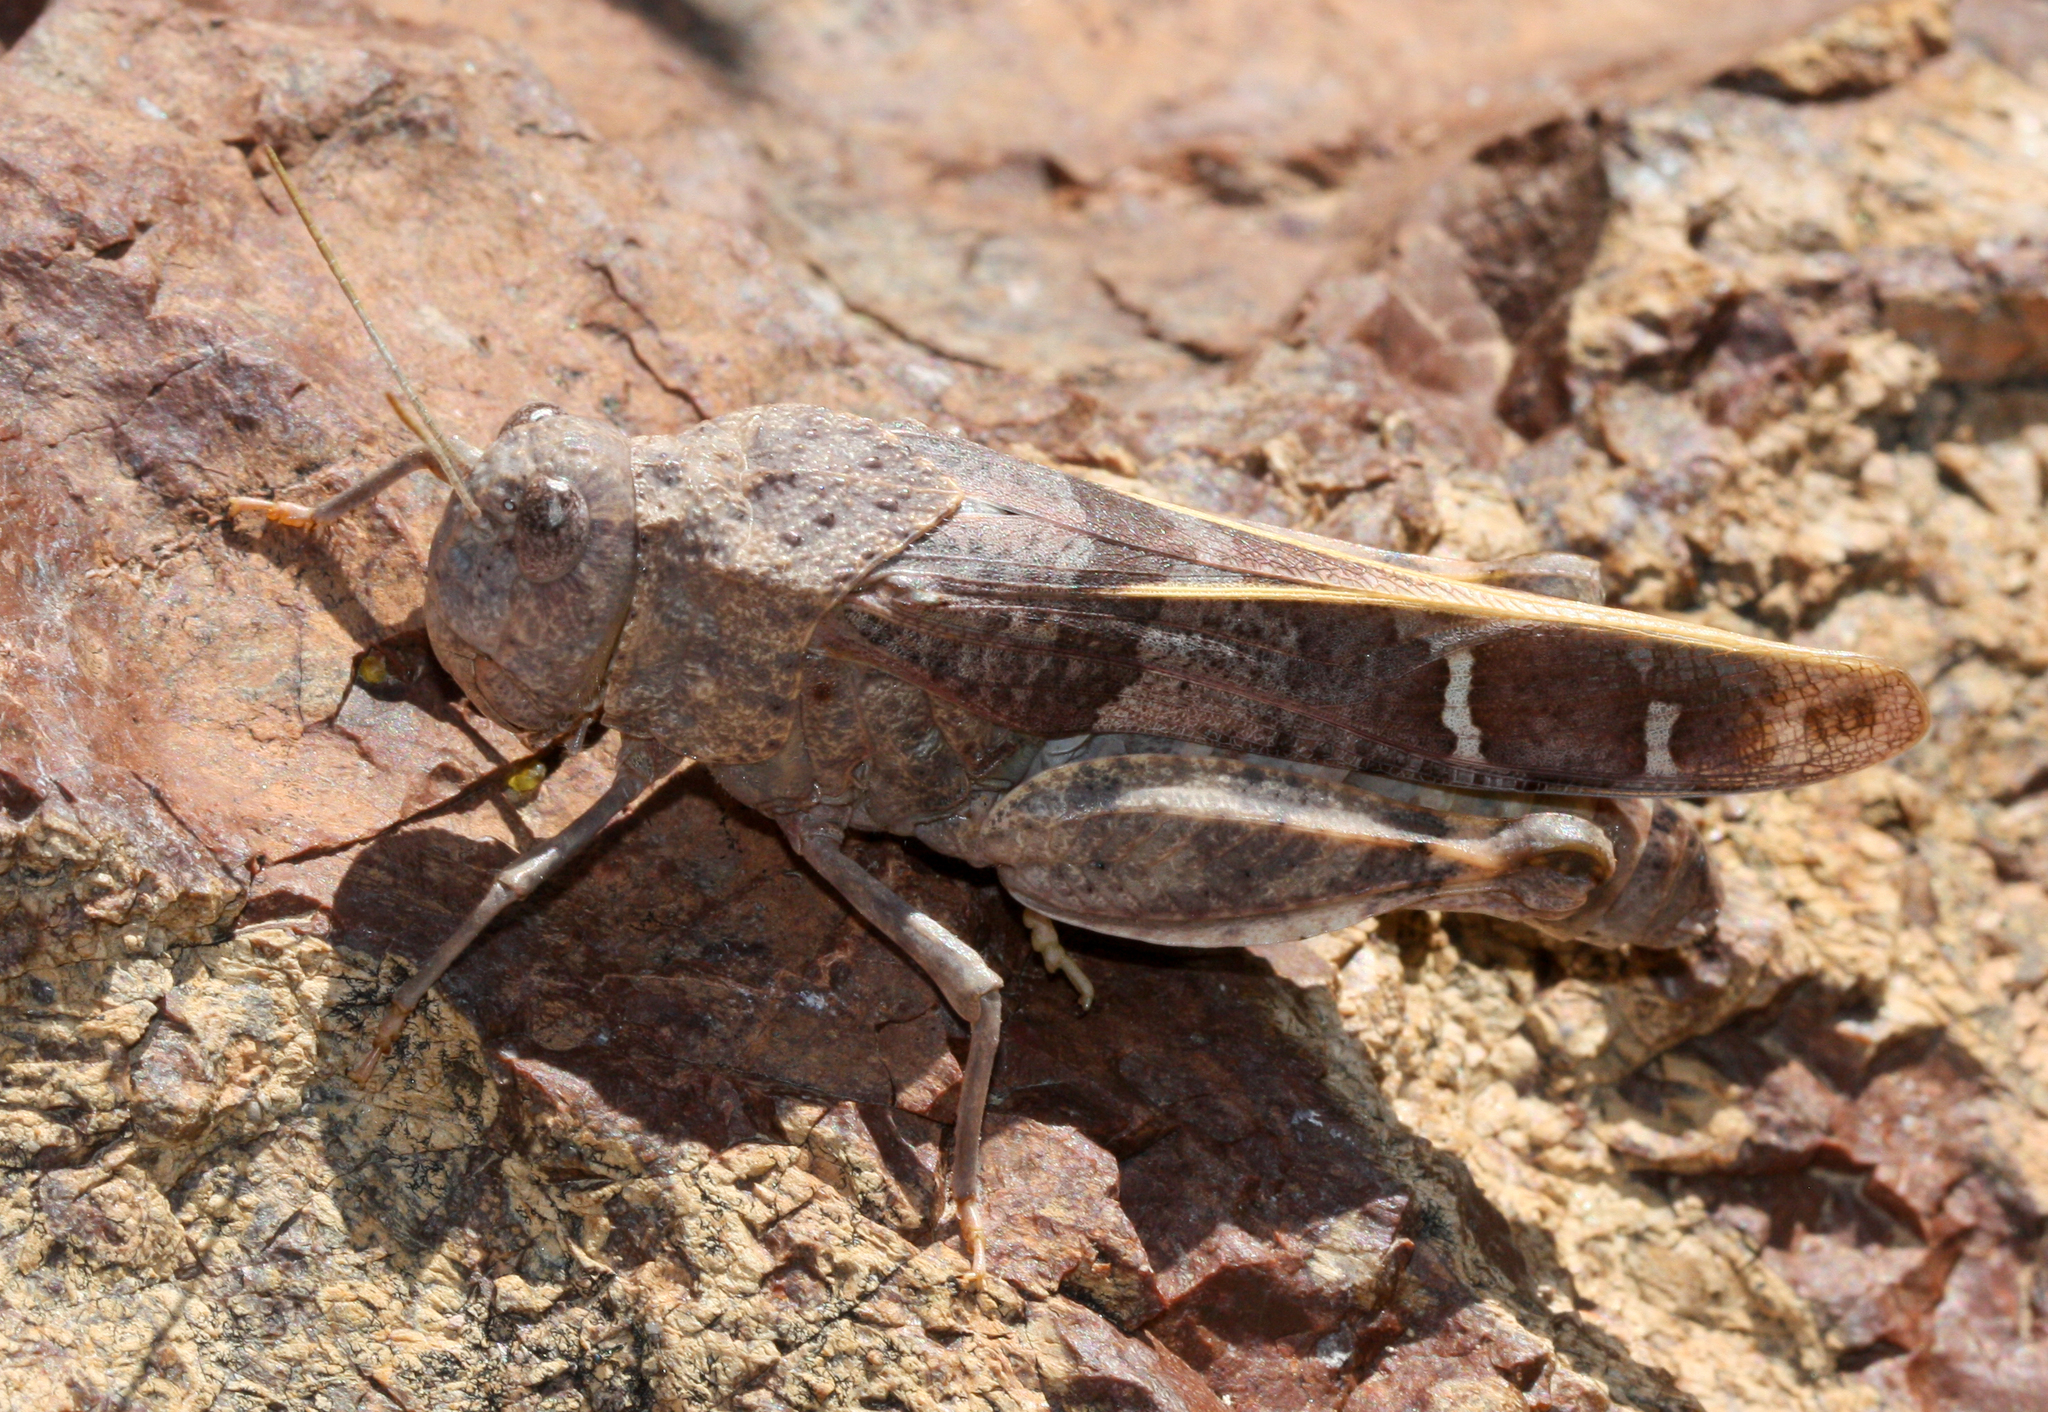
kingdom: Animalia
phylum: Arthropoda
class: Insecta
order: Orthoptera
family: Acrididae
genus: Leprus
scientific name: Leprus intermedius
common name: Saussure's blue-winged grasshopper
